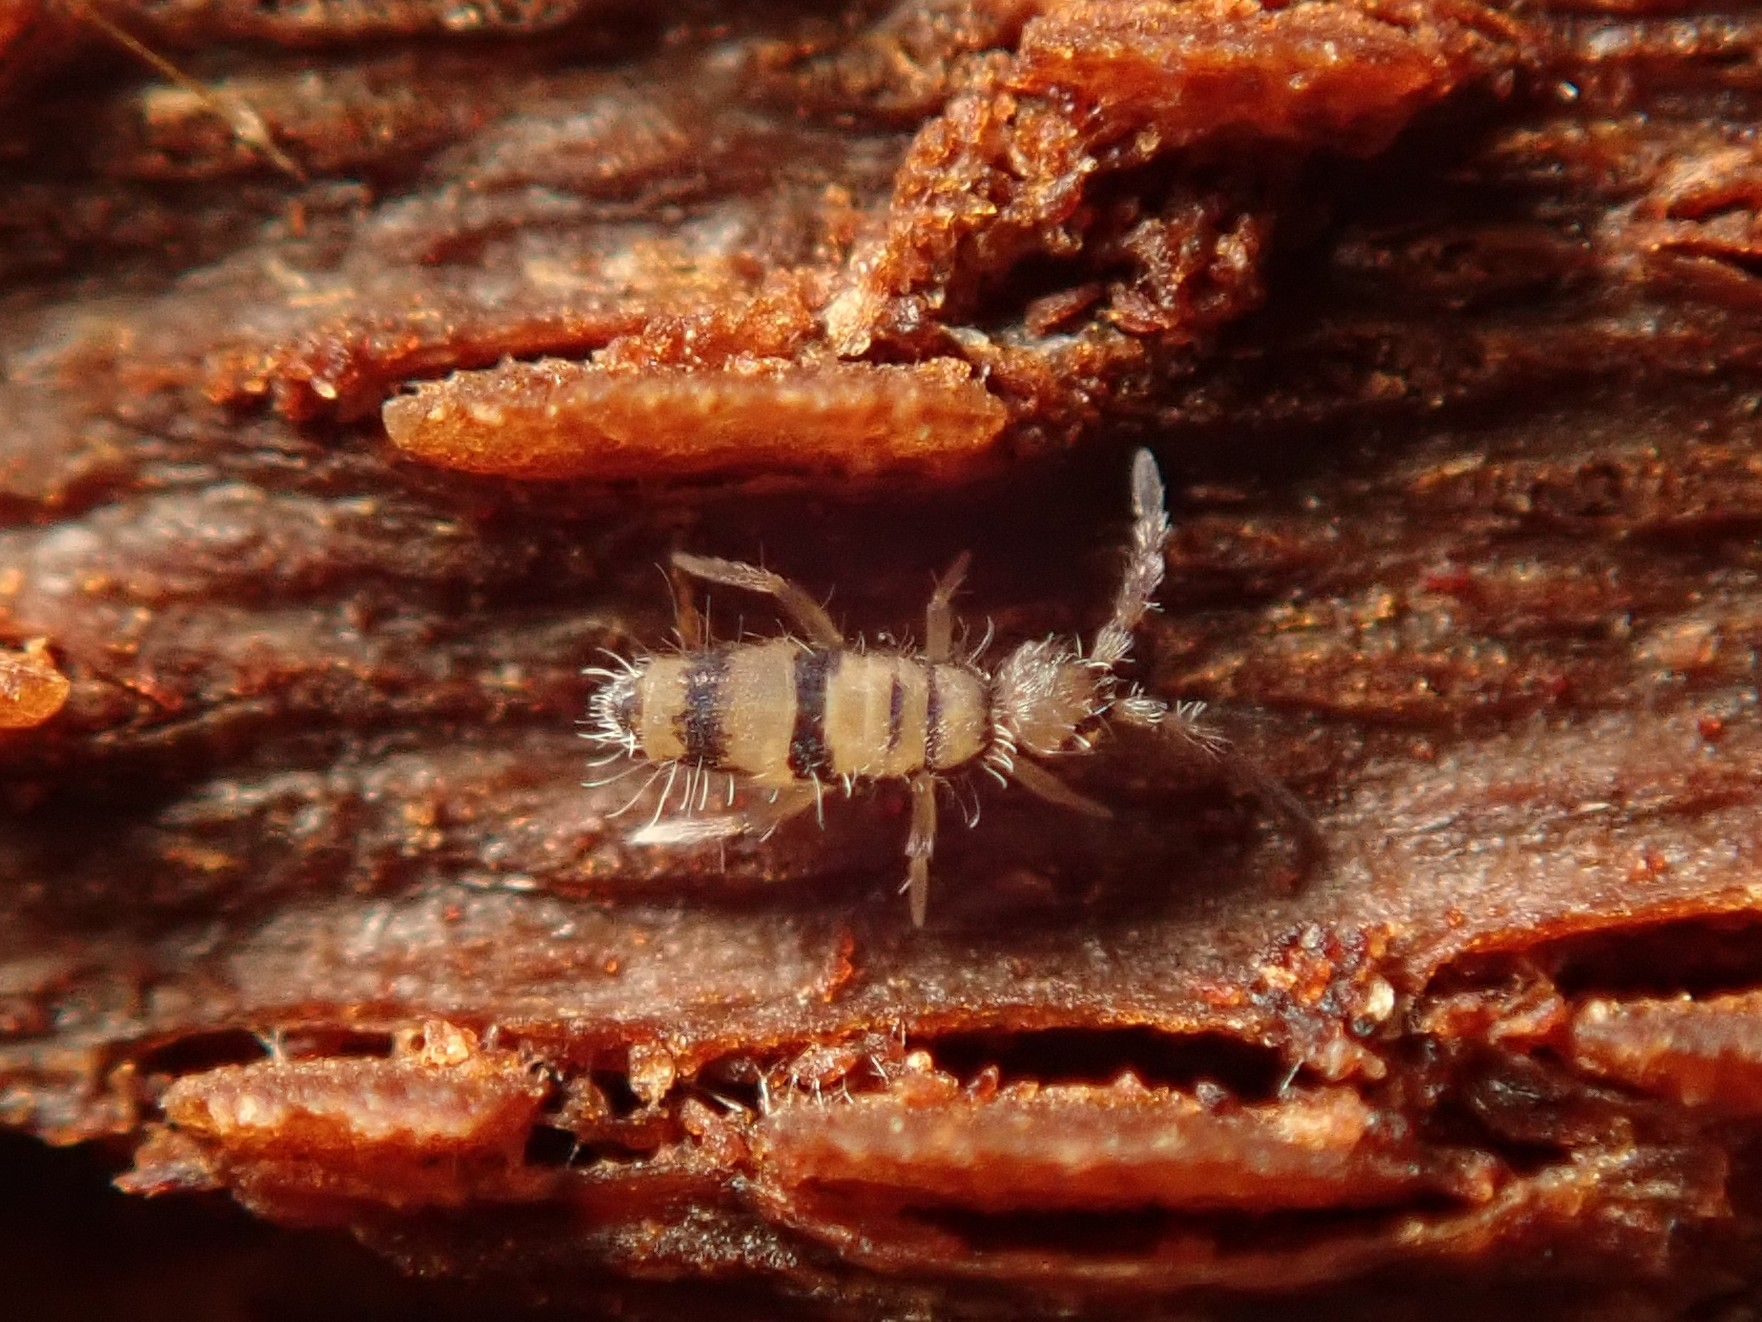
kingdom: Animalia
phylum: Arthropoda
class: Collembola
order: Entomobryomorpha
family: Entomobryidae
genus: Entomobrya
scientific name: Entomobrya corticalis
